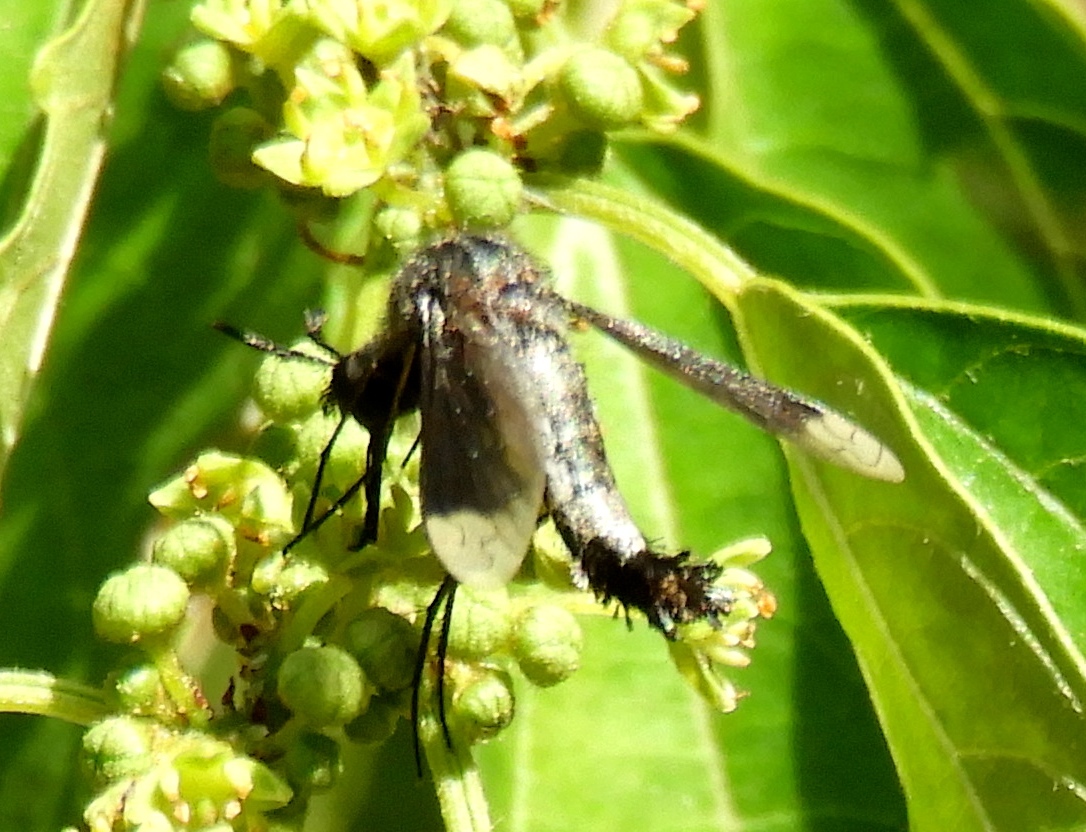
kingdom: Animalia
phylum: Arthropoda
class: Insecta
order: Diptera
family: Bombyliidae
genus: Lepidophora
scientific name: Lepidophora vetusta
